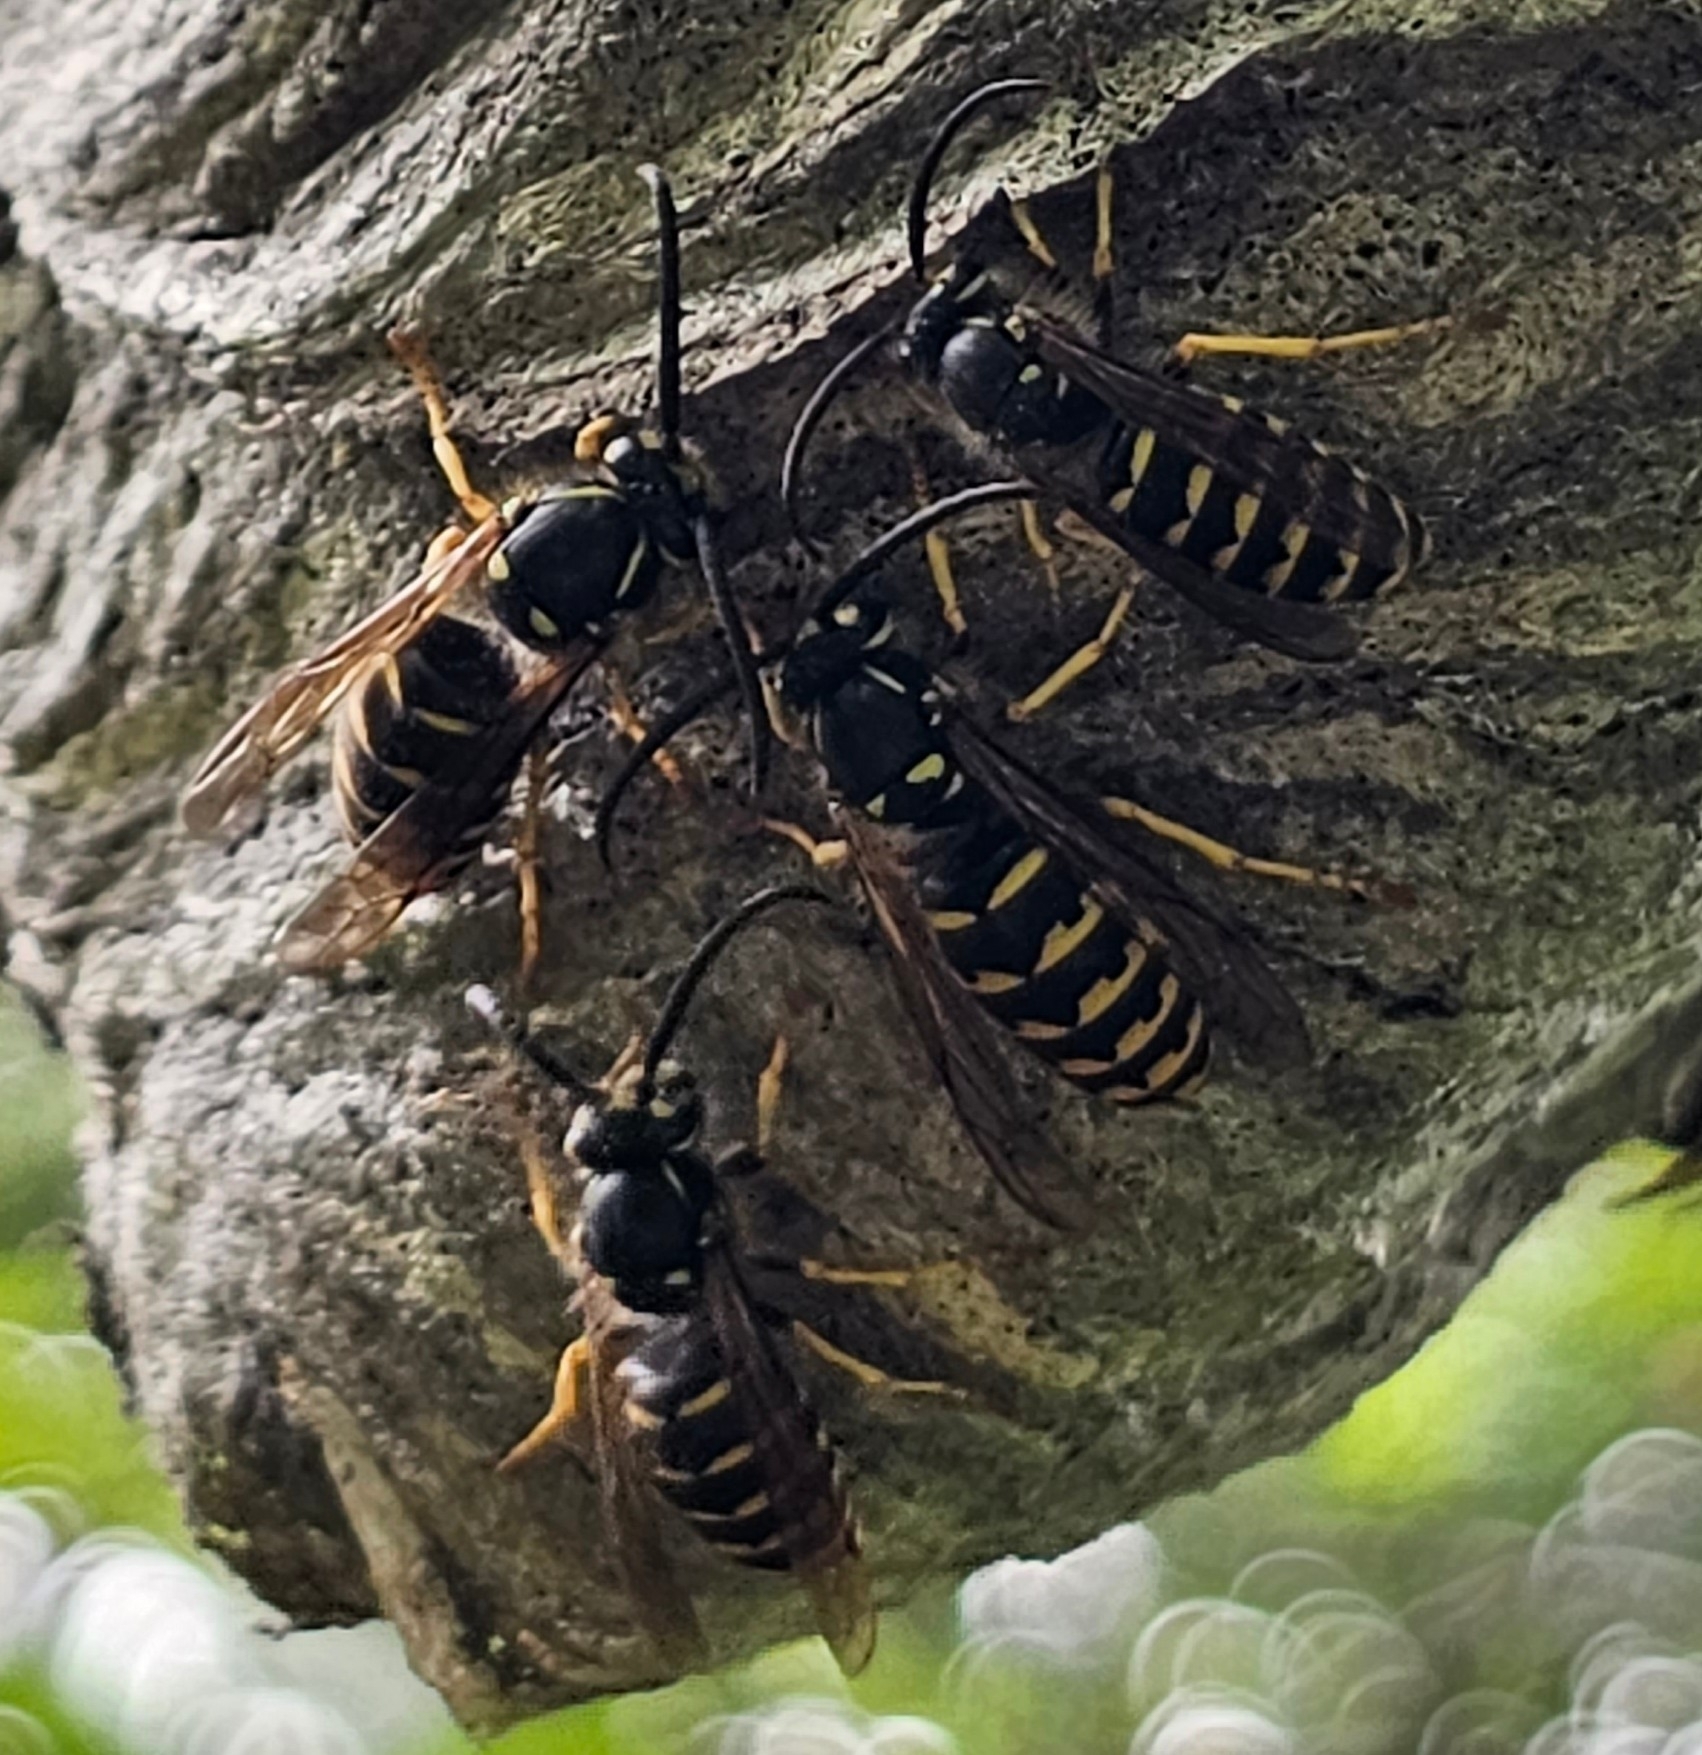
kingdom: Animalia
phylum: Arthropoda
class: Insecta
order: Hymenoptera
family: Vespidae
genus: Dolichovespula
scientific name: Dolichovespula arenaria
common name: Aerial yellowjacket
